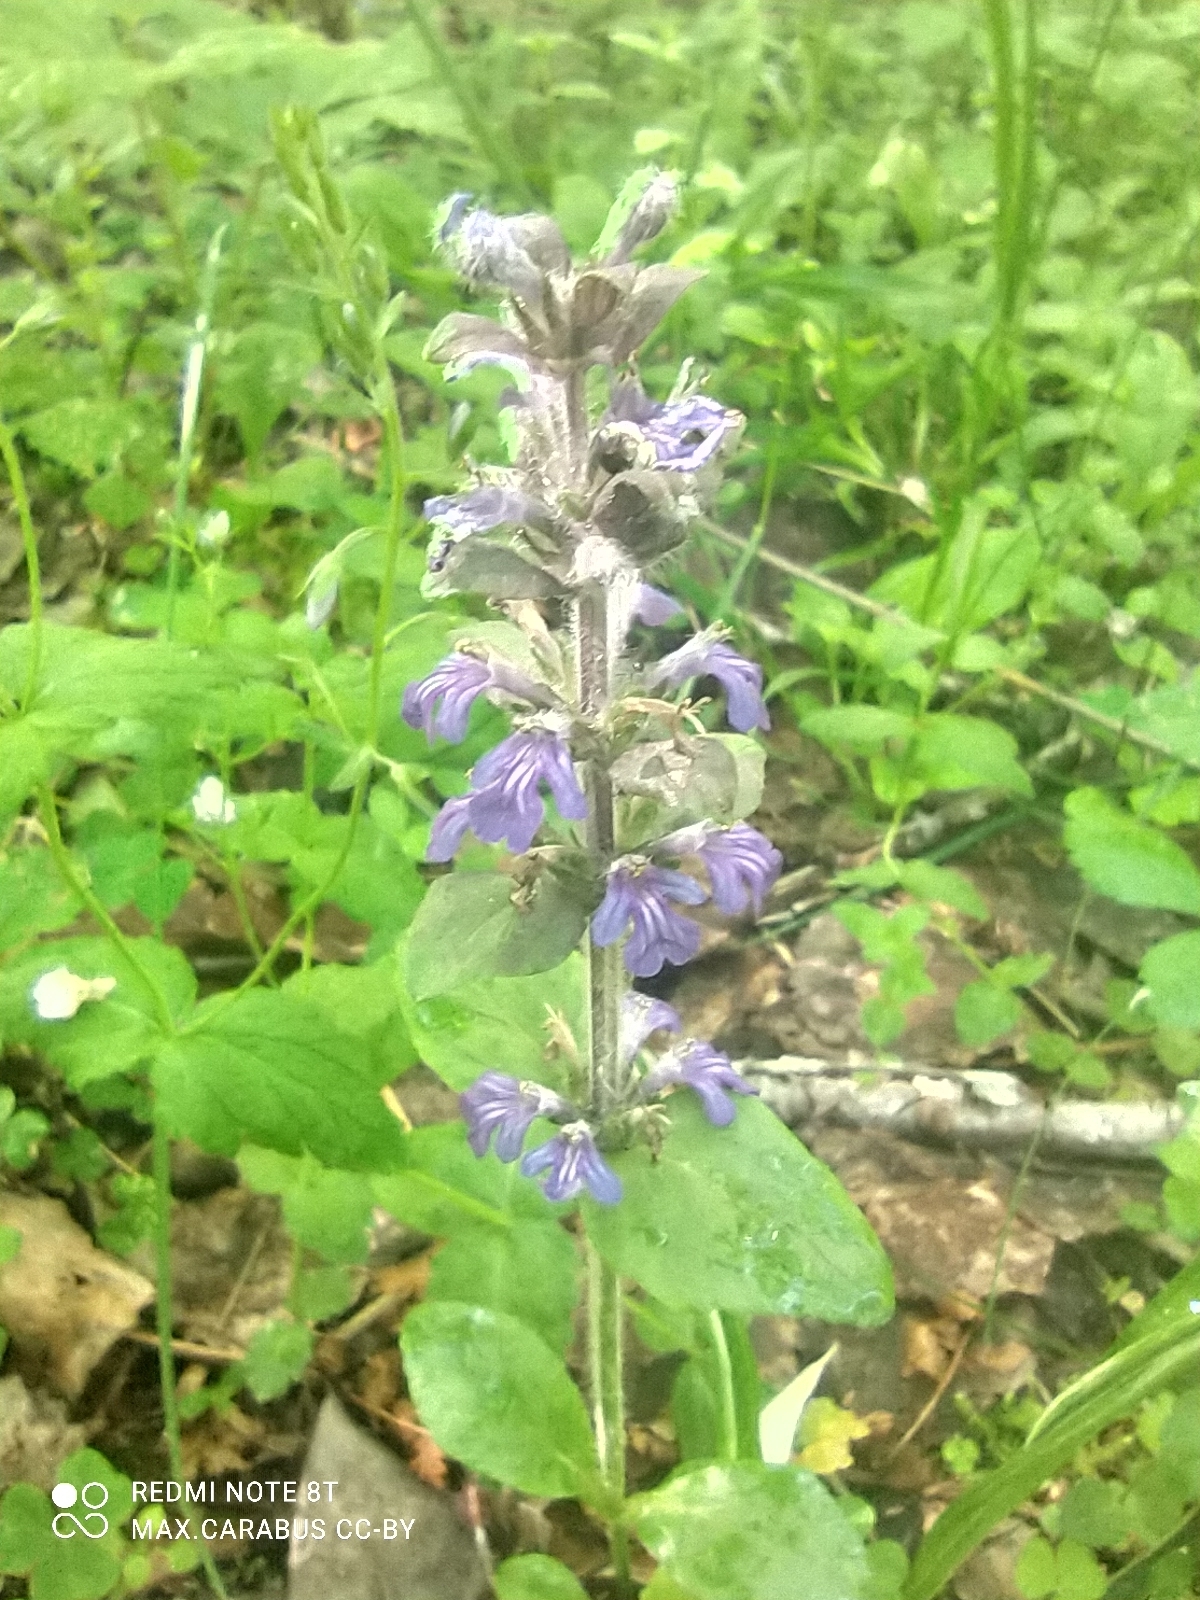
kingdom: Plantae
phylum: Tracheophyta
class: Magnoliopsida
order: Lamiales
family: Lamiaceae
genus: Ajuga
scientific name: Ajuga reptans
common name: Bugle
